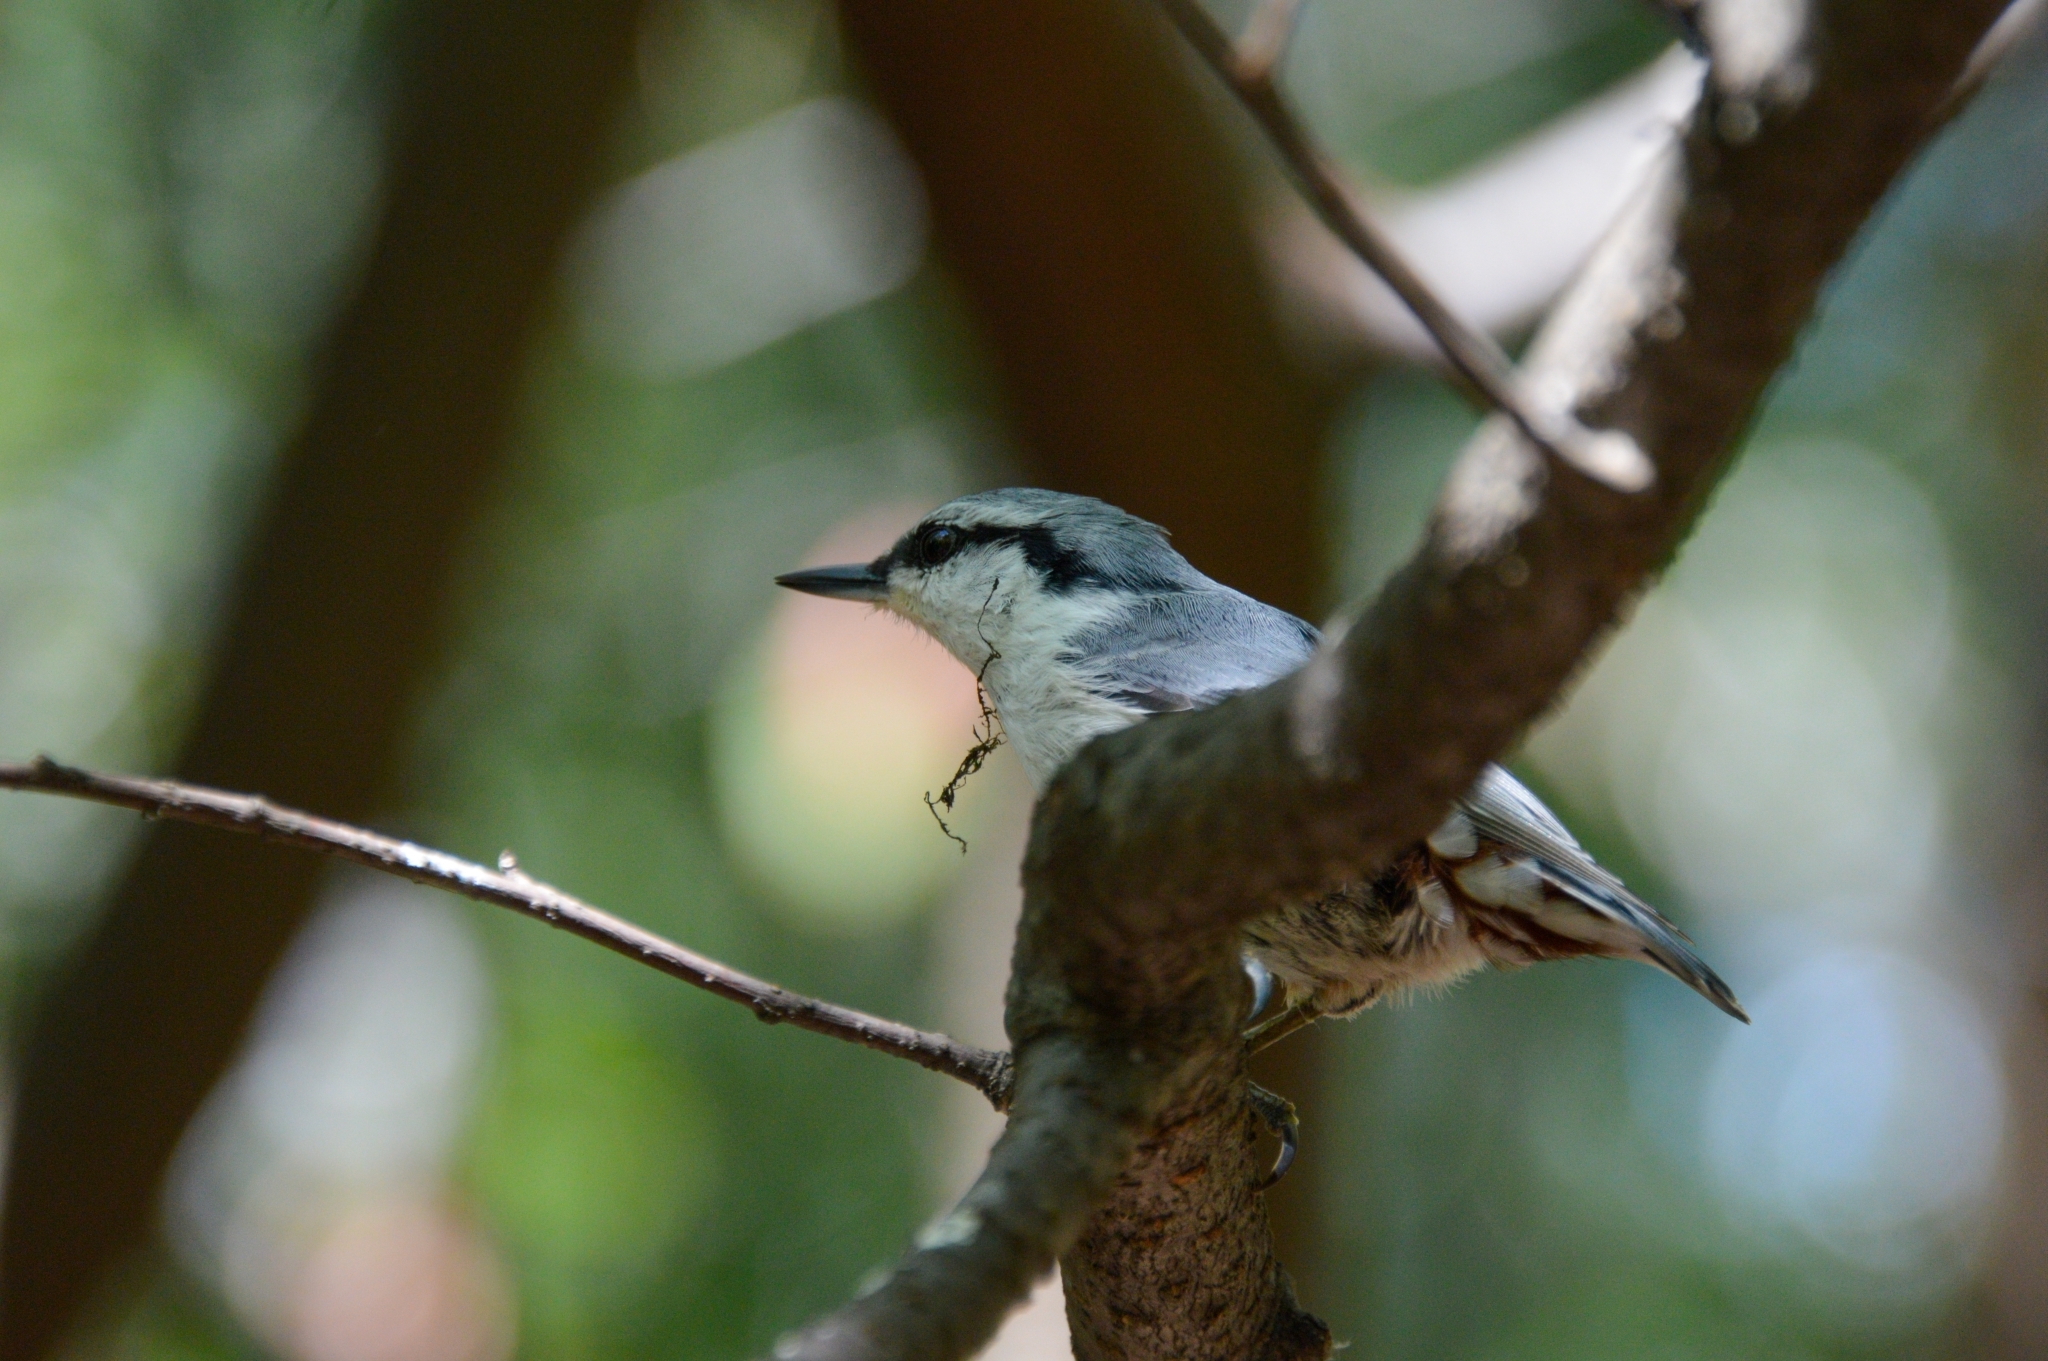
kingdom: Animalia
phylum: Chordata
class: Aves
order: Passeriformes
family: Sittidae
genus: Sitta
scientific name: Sitta europaea
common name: Eurasian nuthatch
